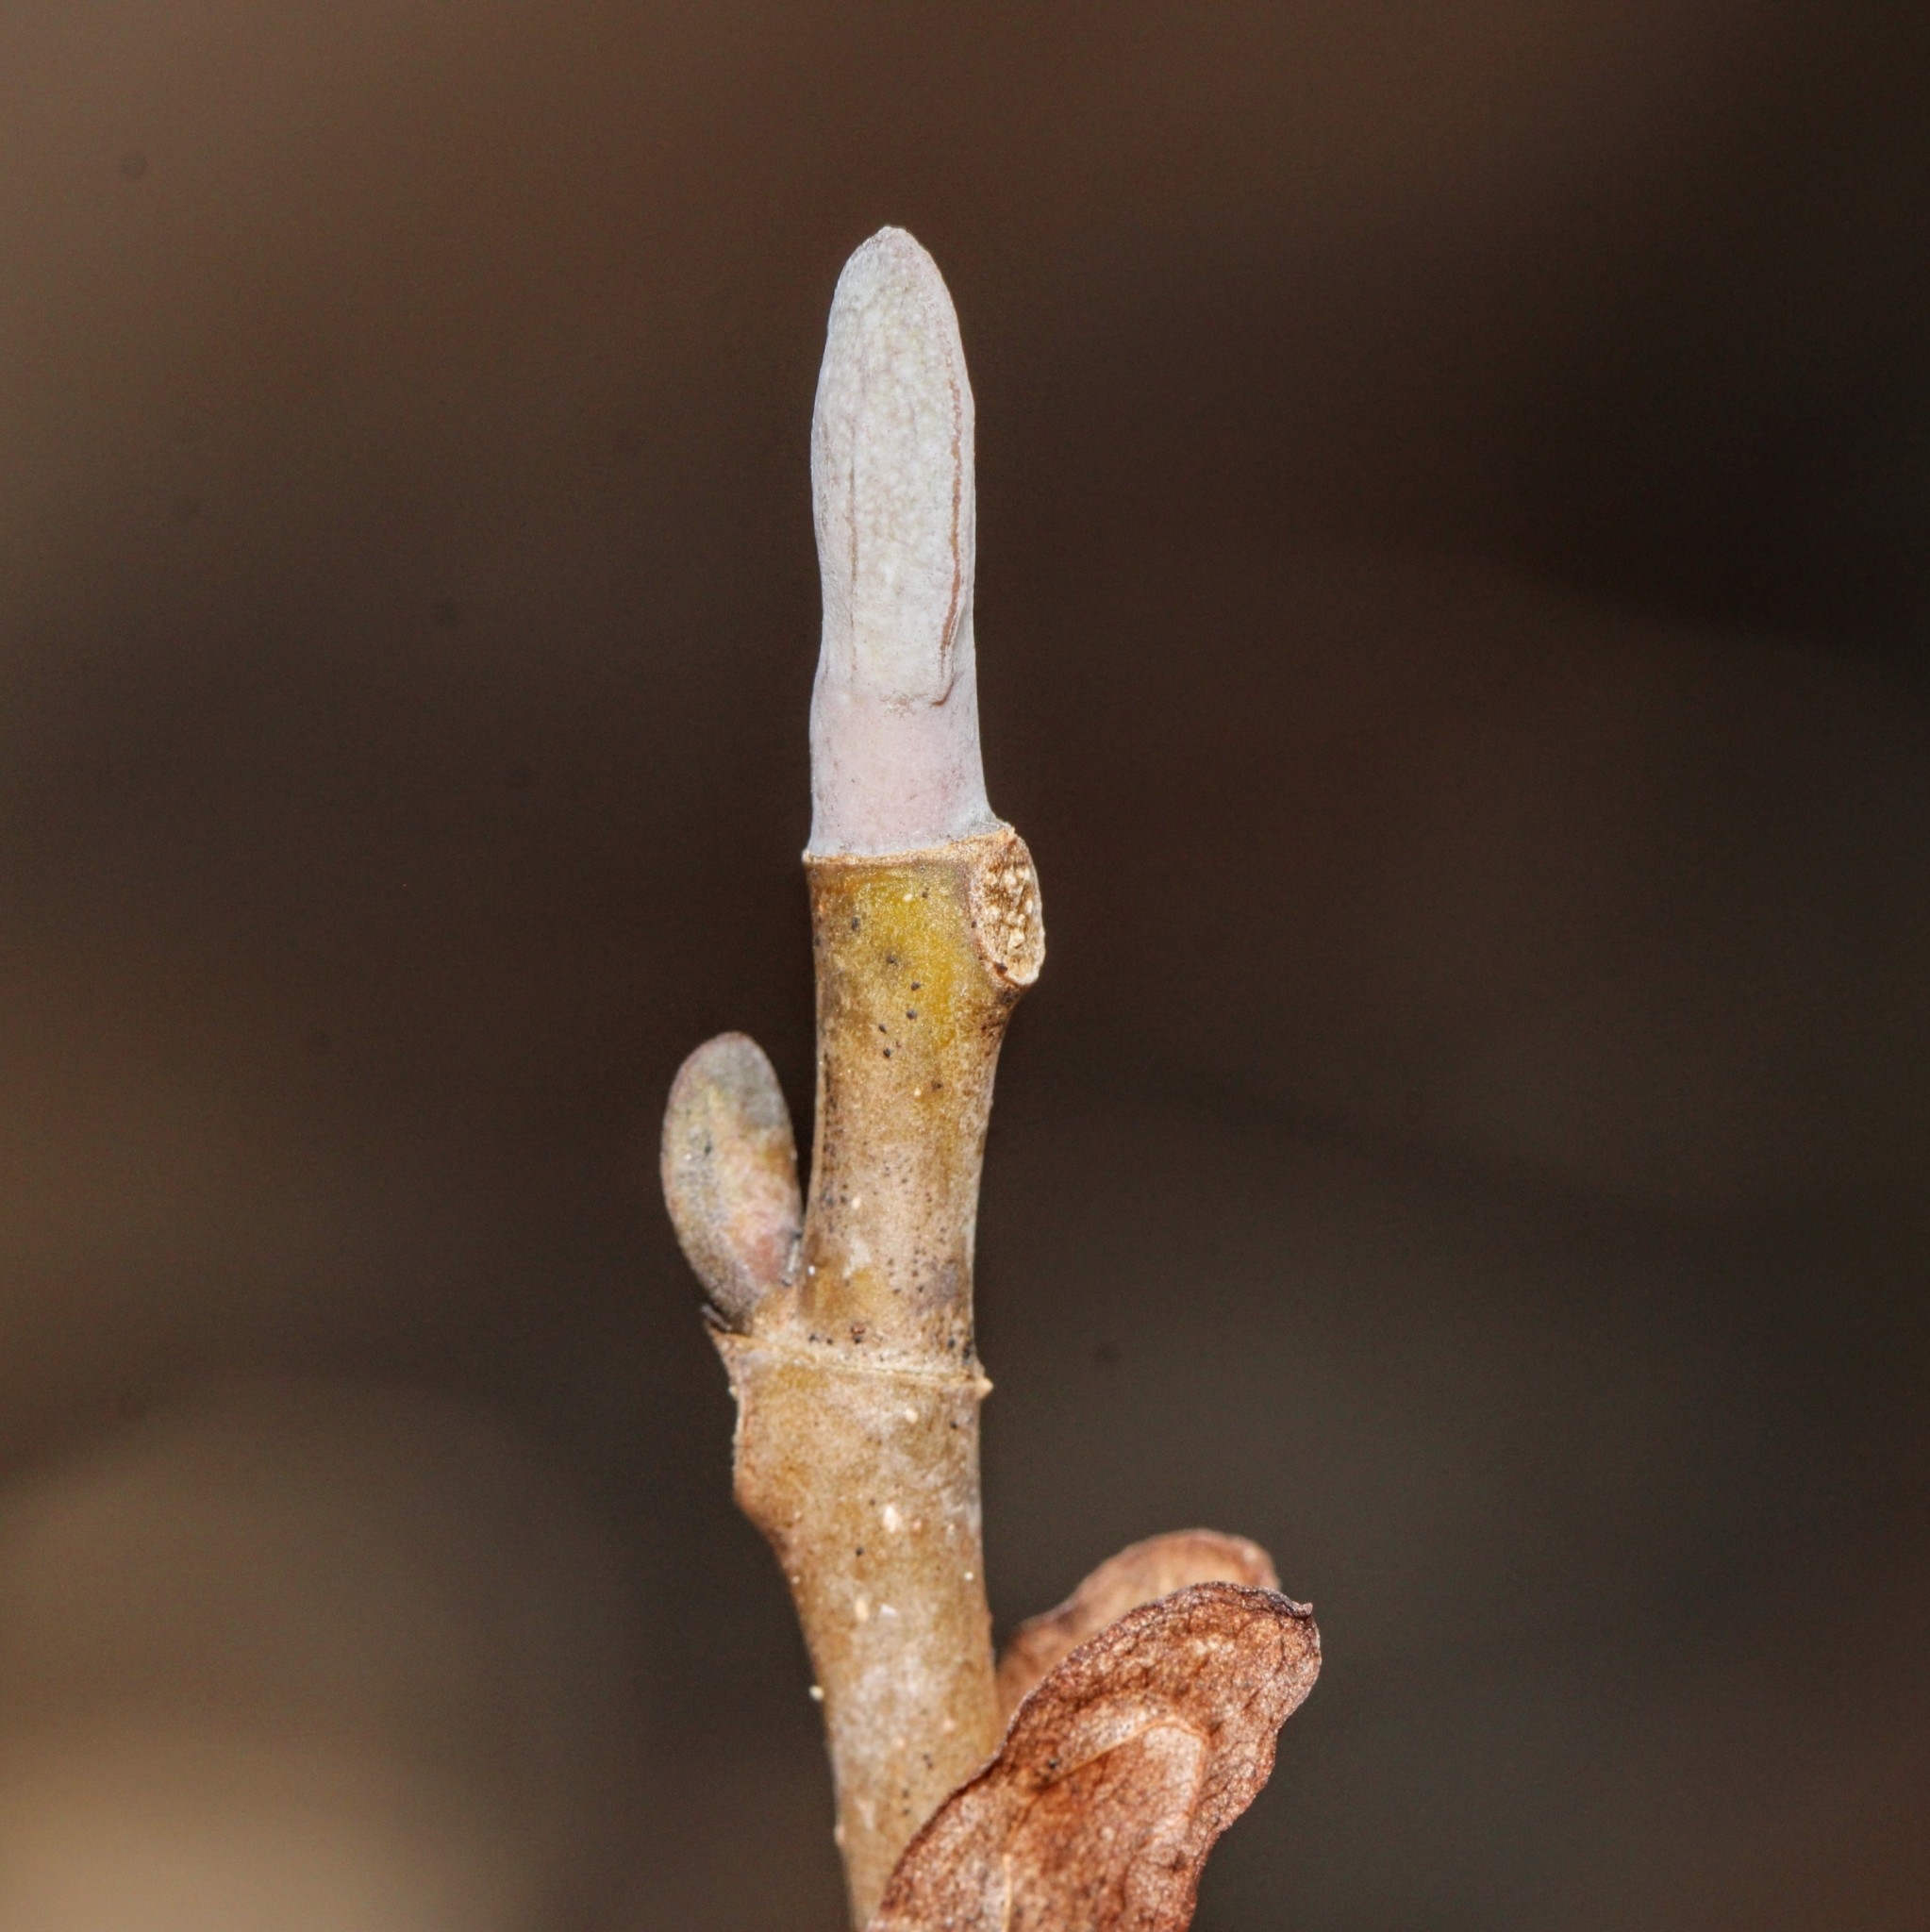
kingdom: Plantae
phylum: Tracheophyta
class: Magnoliopsida
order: Magnoliales
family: Magnoliaceae
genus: Liriodendron
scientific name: Liriodendron tulipifera
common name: Tulip tree
